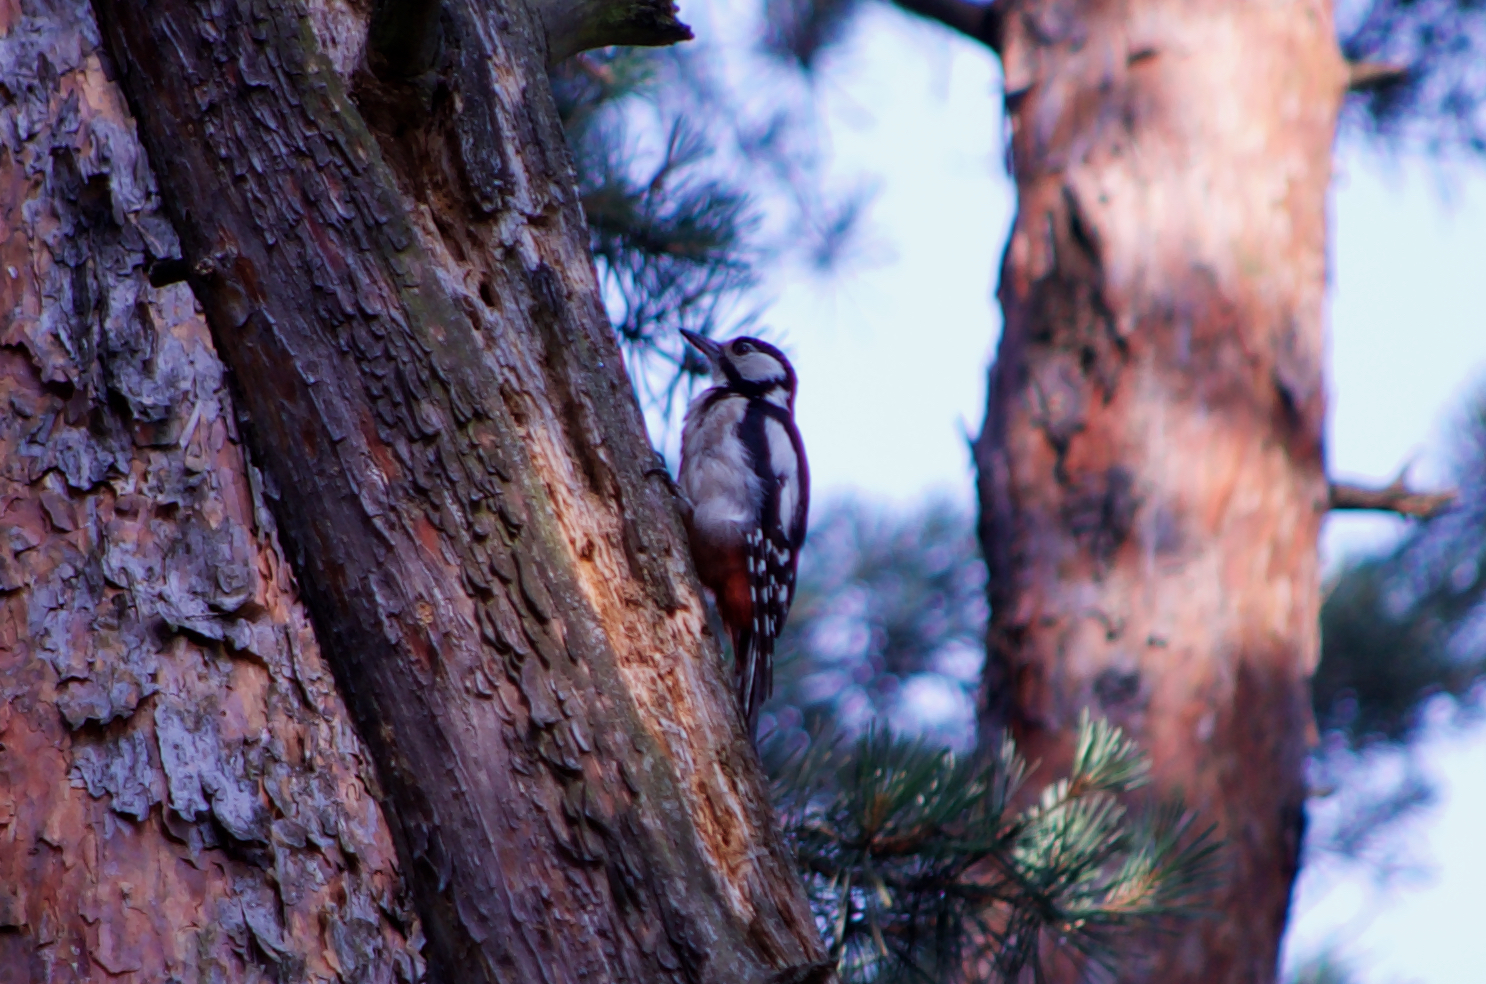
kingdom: Animalia
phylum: Chordata
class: Aves
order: Piciformes
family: Picidae
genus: Dendrocopos
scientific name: Dendrocopos major
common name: Great spotted woodpecker
